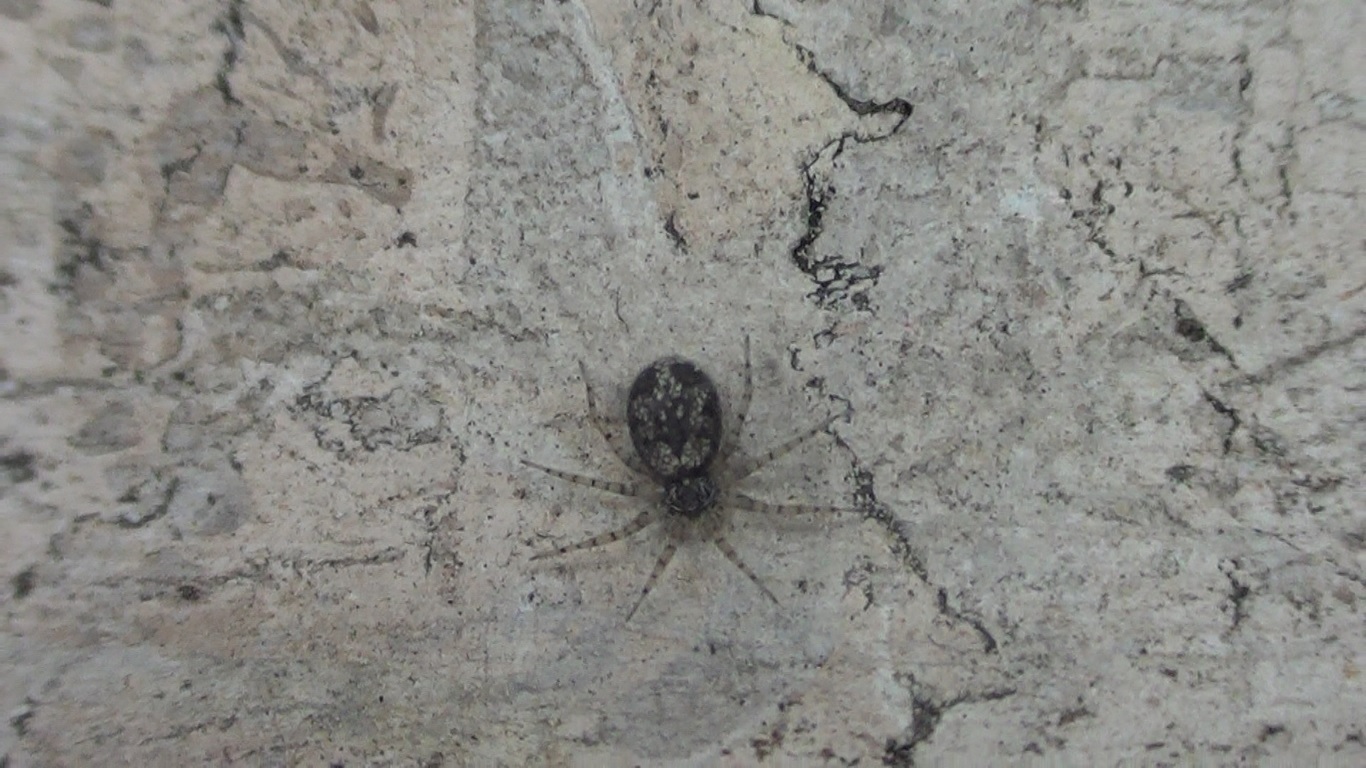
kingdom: Animalia
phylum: Arthropoda
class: Arachnida
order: Araneae
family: Oecobiidae
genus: Oecobius
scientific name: Oecobius maculatus
